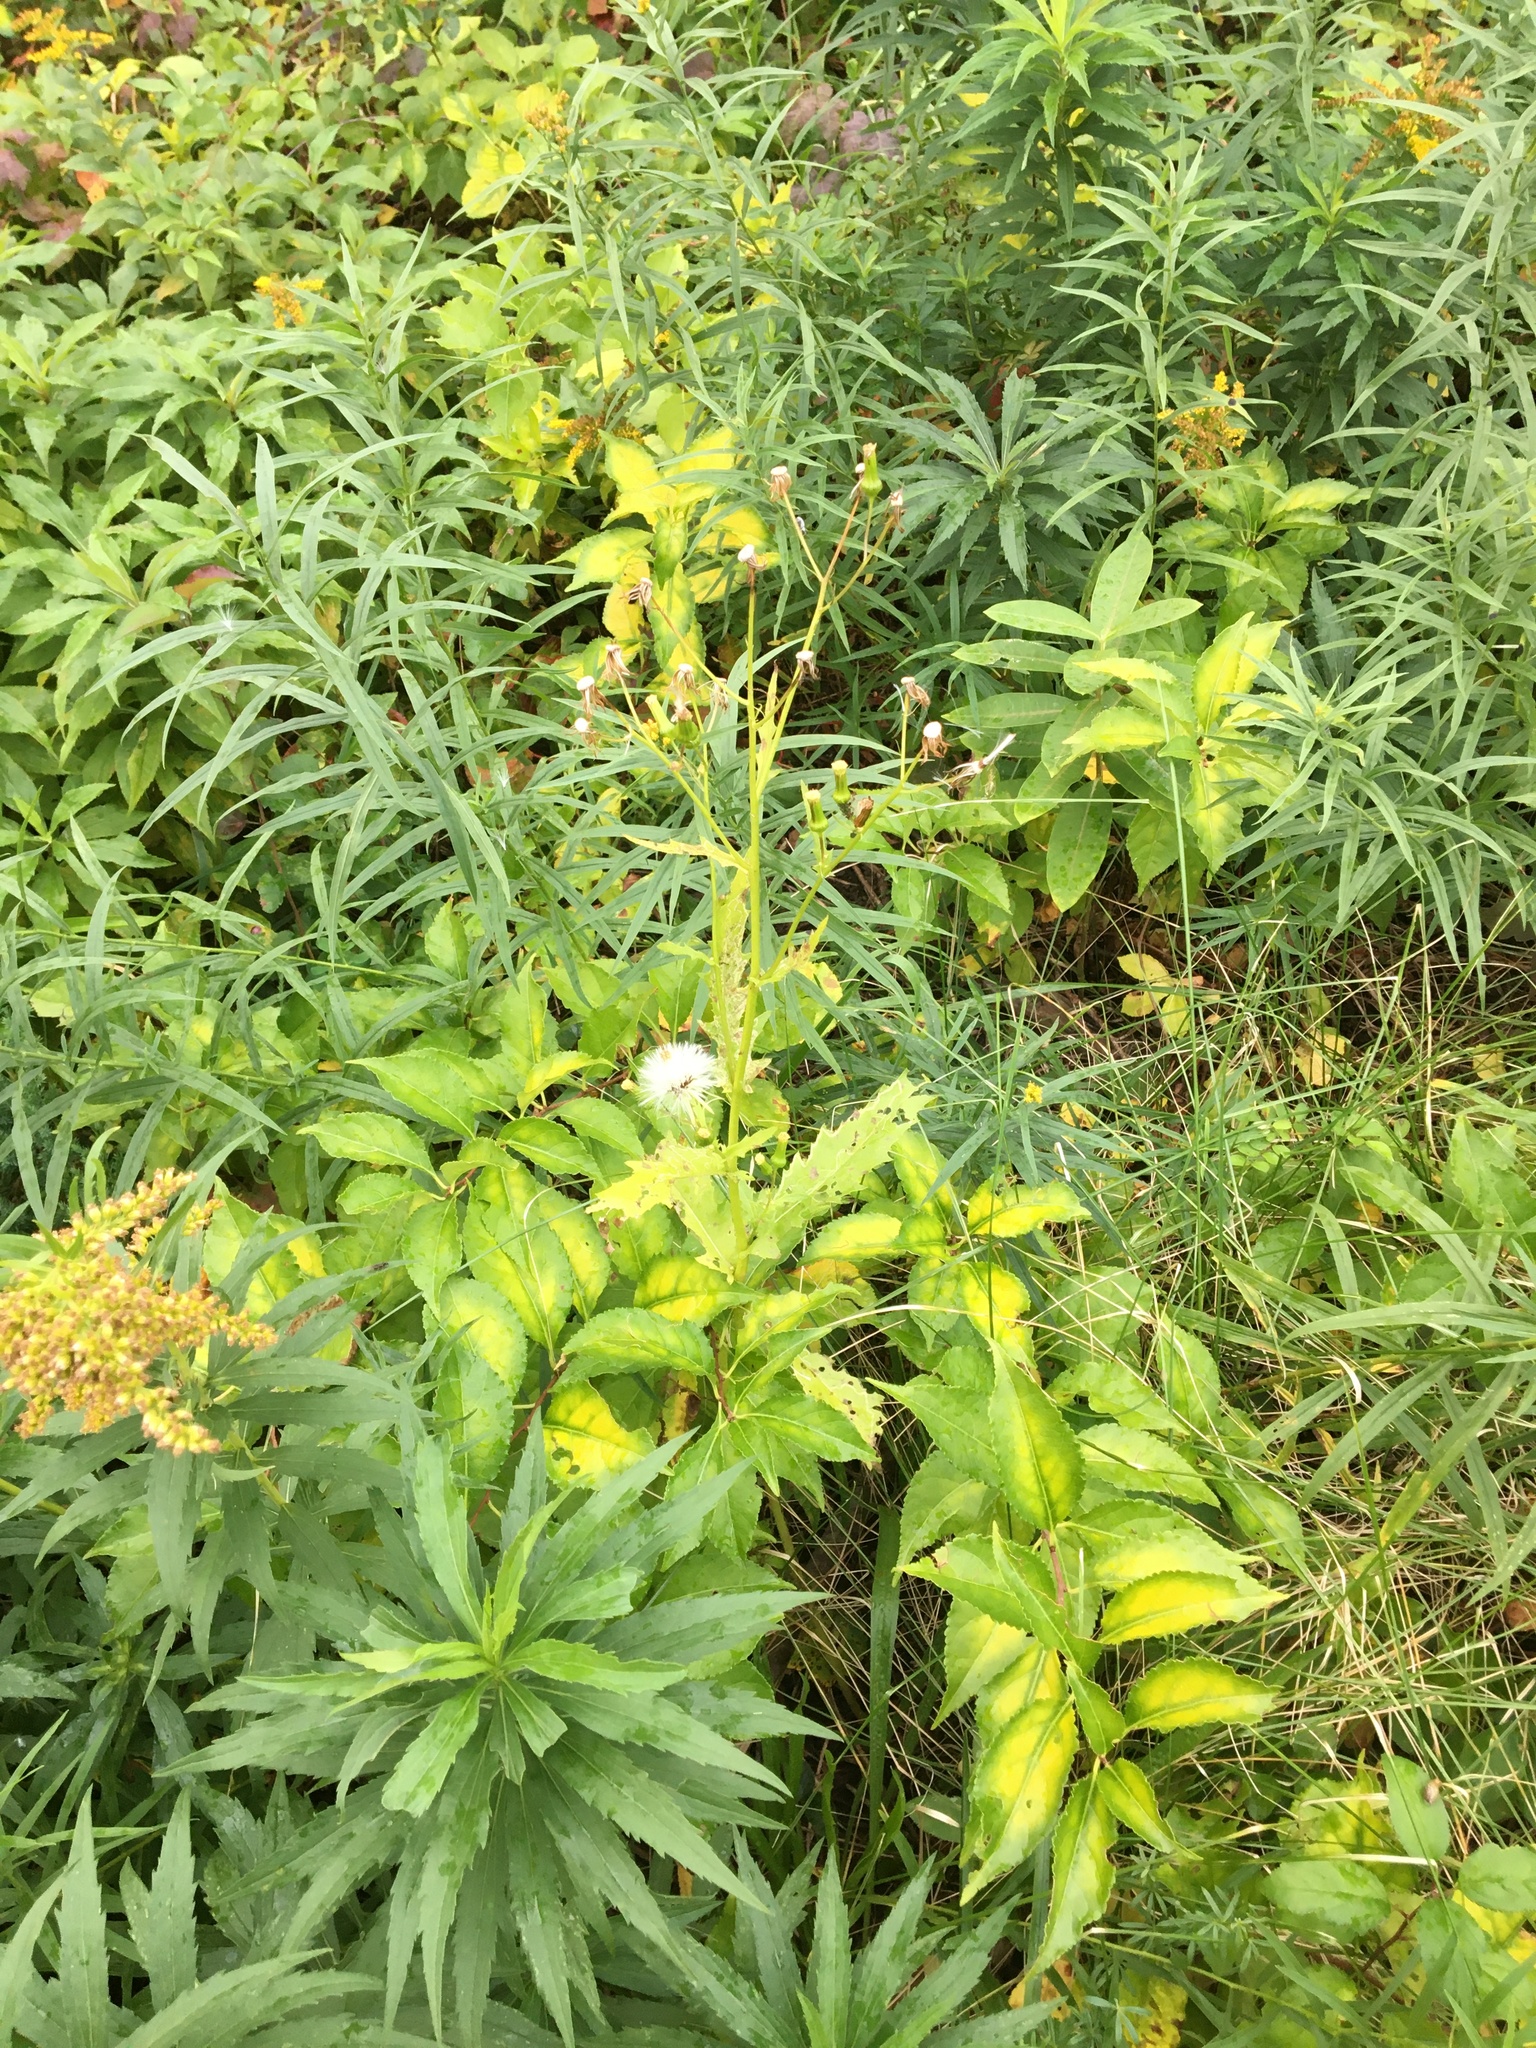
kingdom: Plantae
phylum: Tracheophyta
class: Magnoliopsida
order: Asterales
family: Asteraceae
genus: Erechtites
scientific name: Erechtites hieraciifolius
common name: American burnweed
